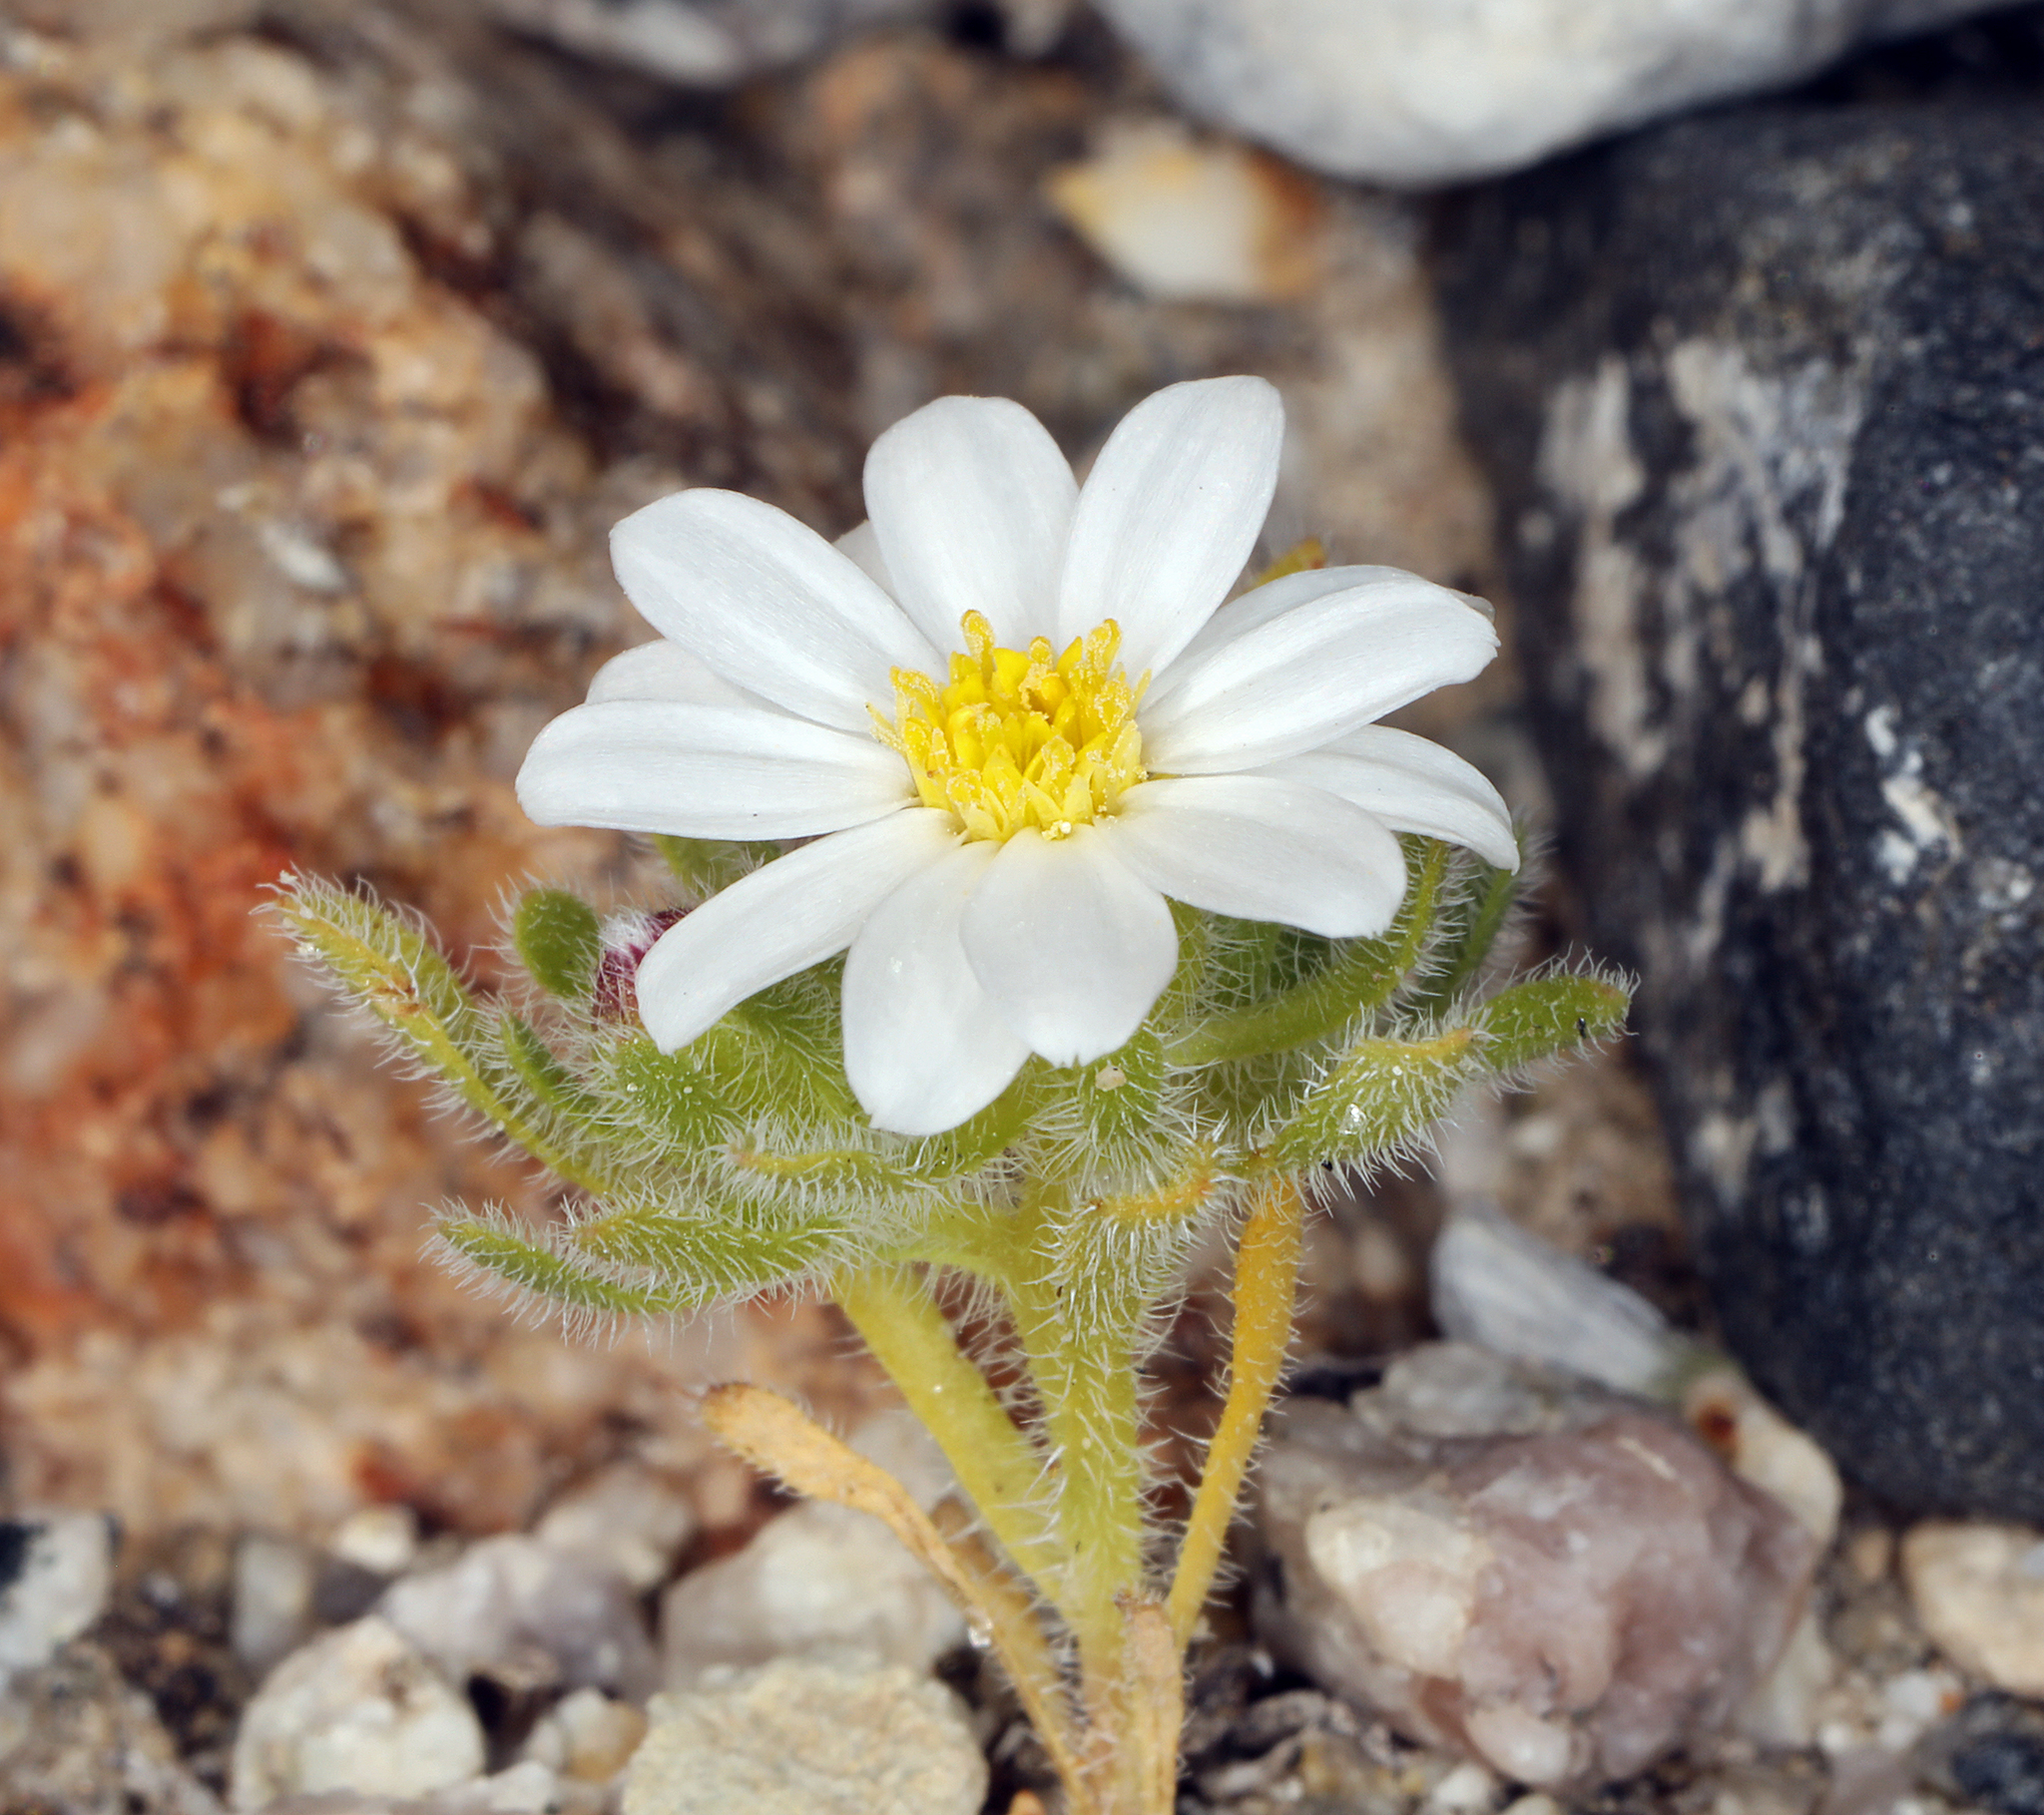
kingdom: Plantae
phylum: Tracheophyta
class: Magnoliopsida
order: Asterales
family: Asteraceae
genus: Monoptilon
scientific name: Monoptilon bellioides
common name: Bristly desertstar
